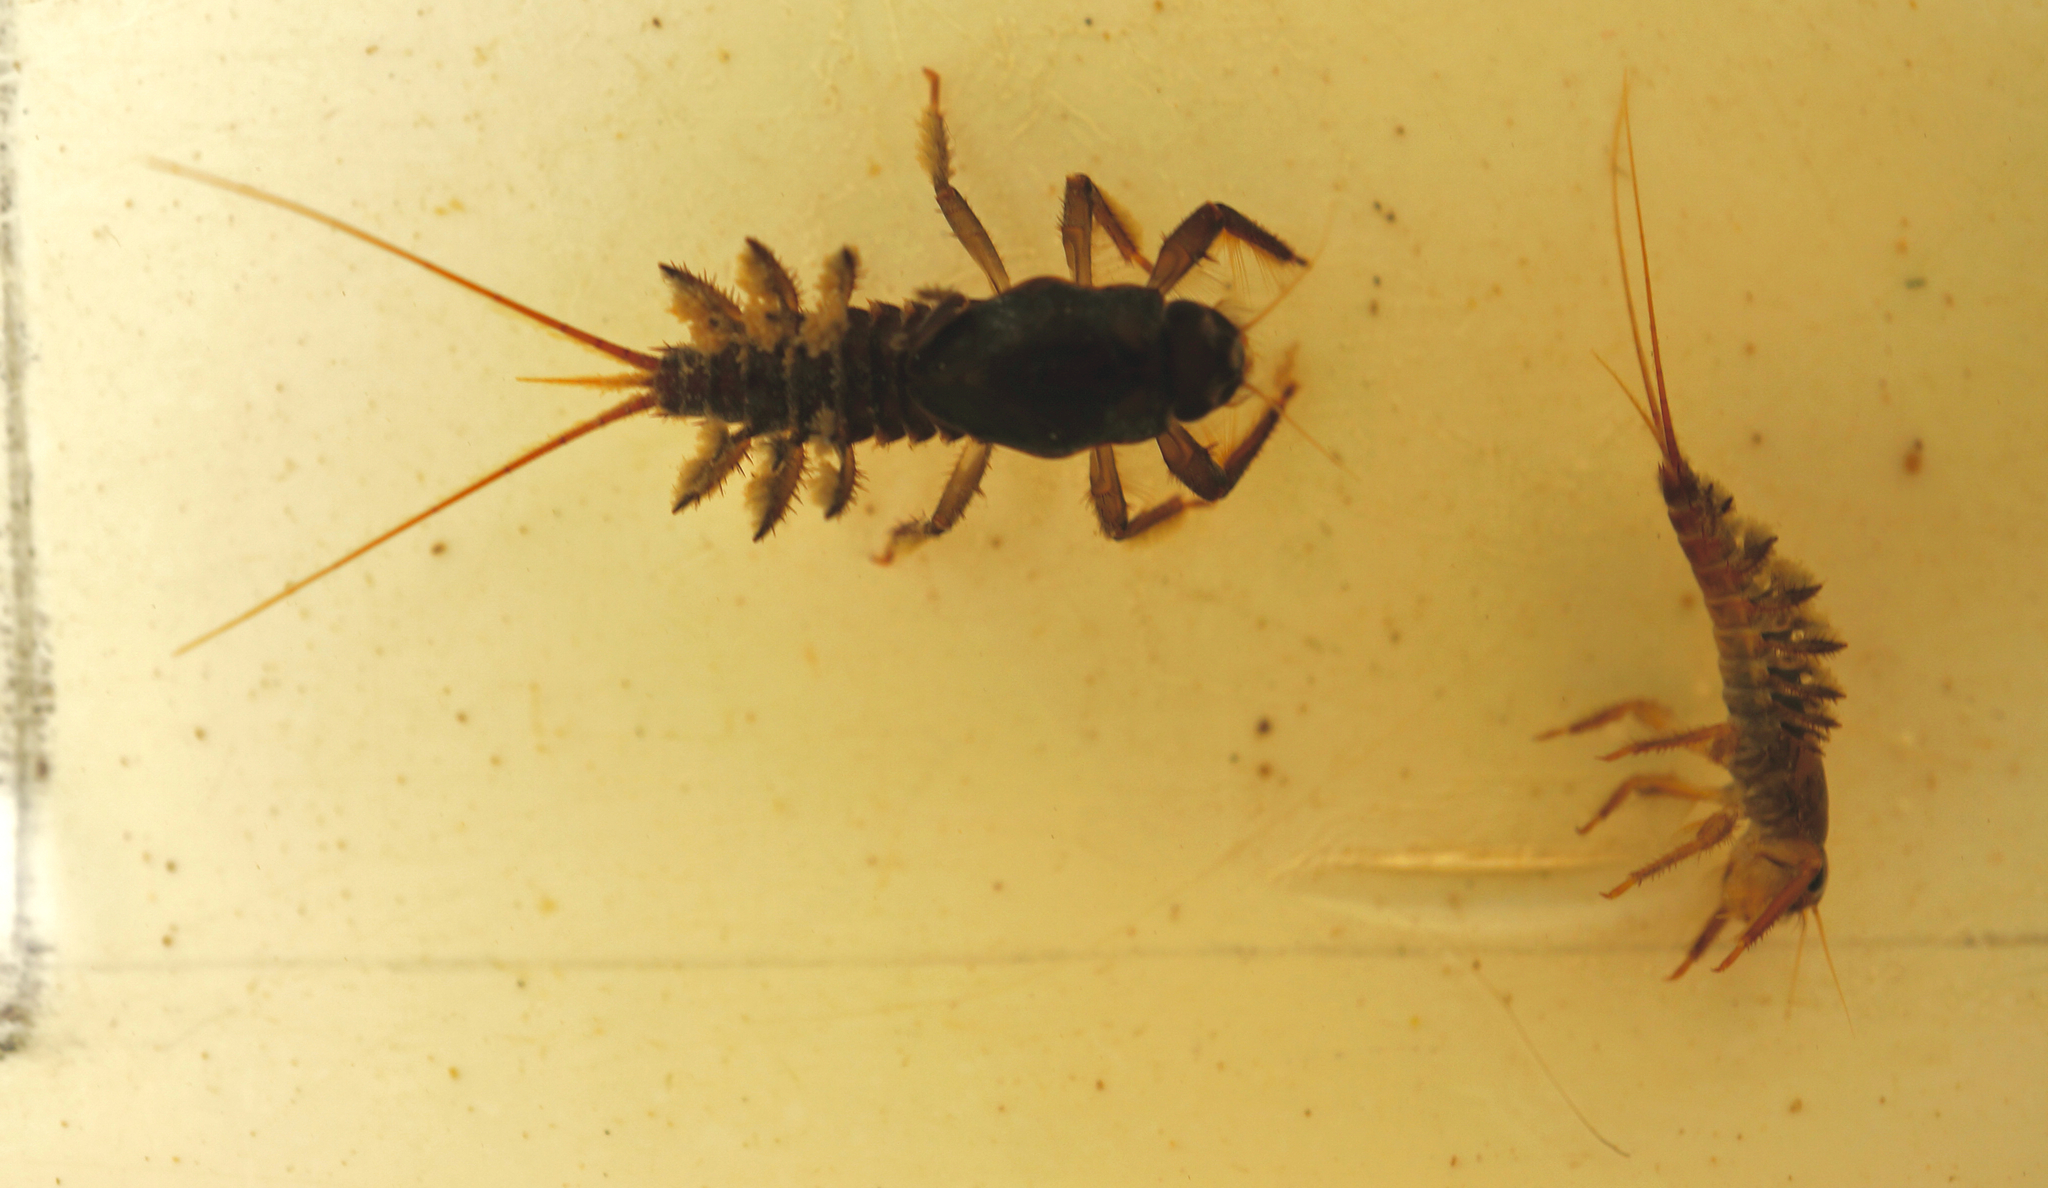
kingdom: Animalia
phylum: Arthropoda
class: Insecta
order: Ephemeroptera
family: Coloburiscidae
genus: Coloburiscus
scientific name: Coloburiscus humeralis
